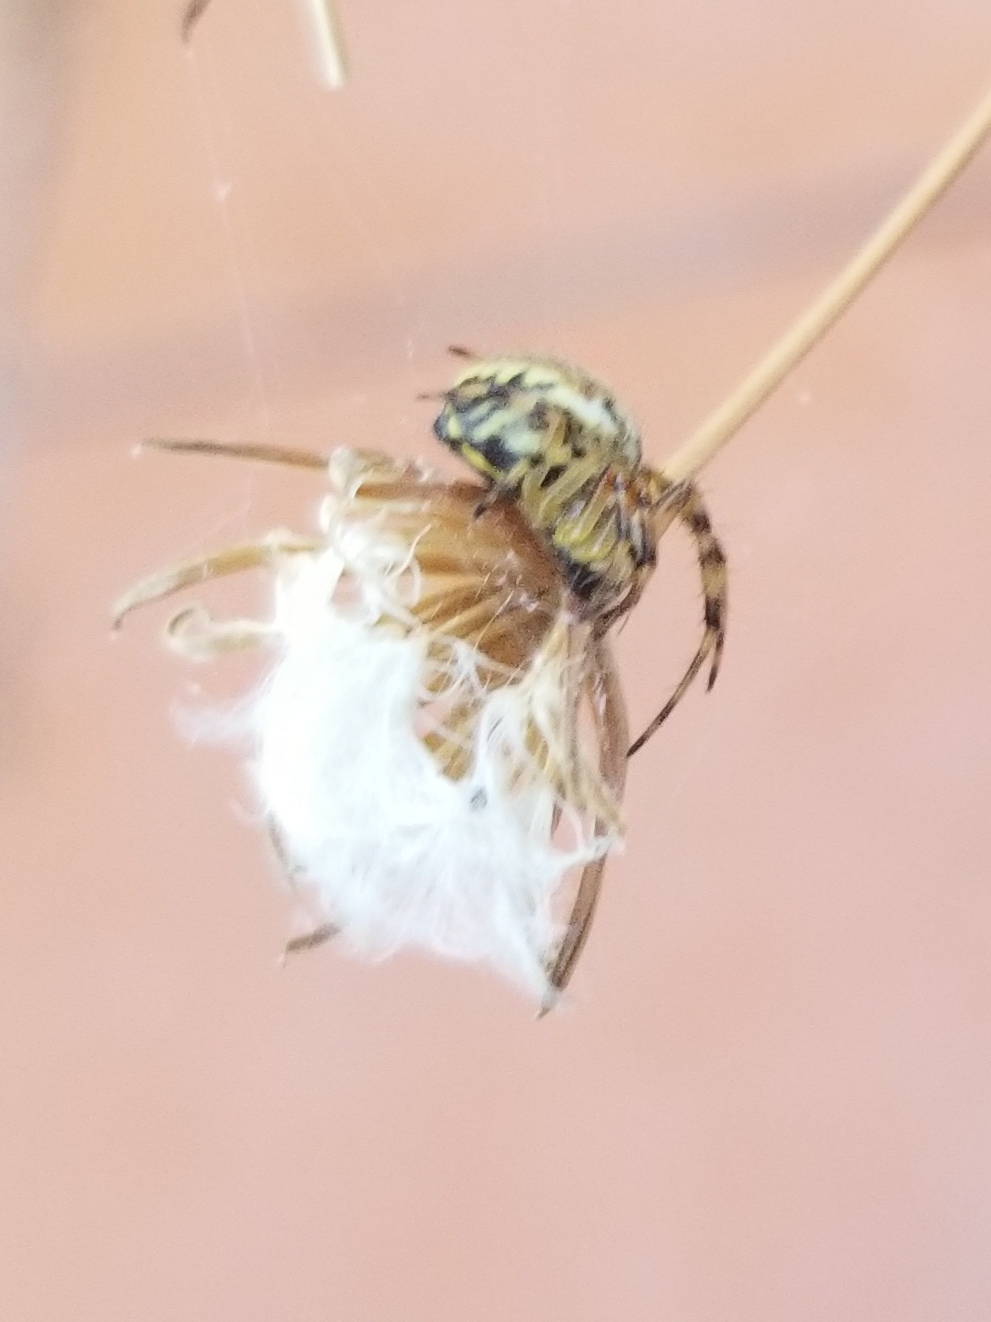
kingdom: Animalia
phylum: Arthropoda
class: Arachnida
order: Araneae
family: Araneidae
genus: Aculepeira
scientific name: Aculepeira ceropegia
